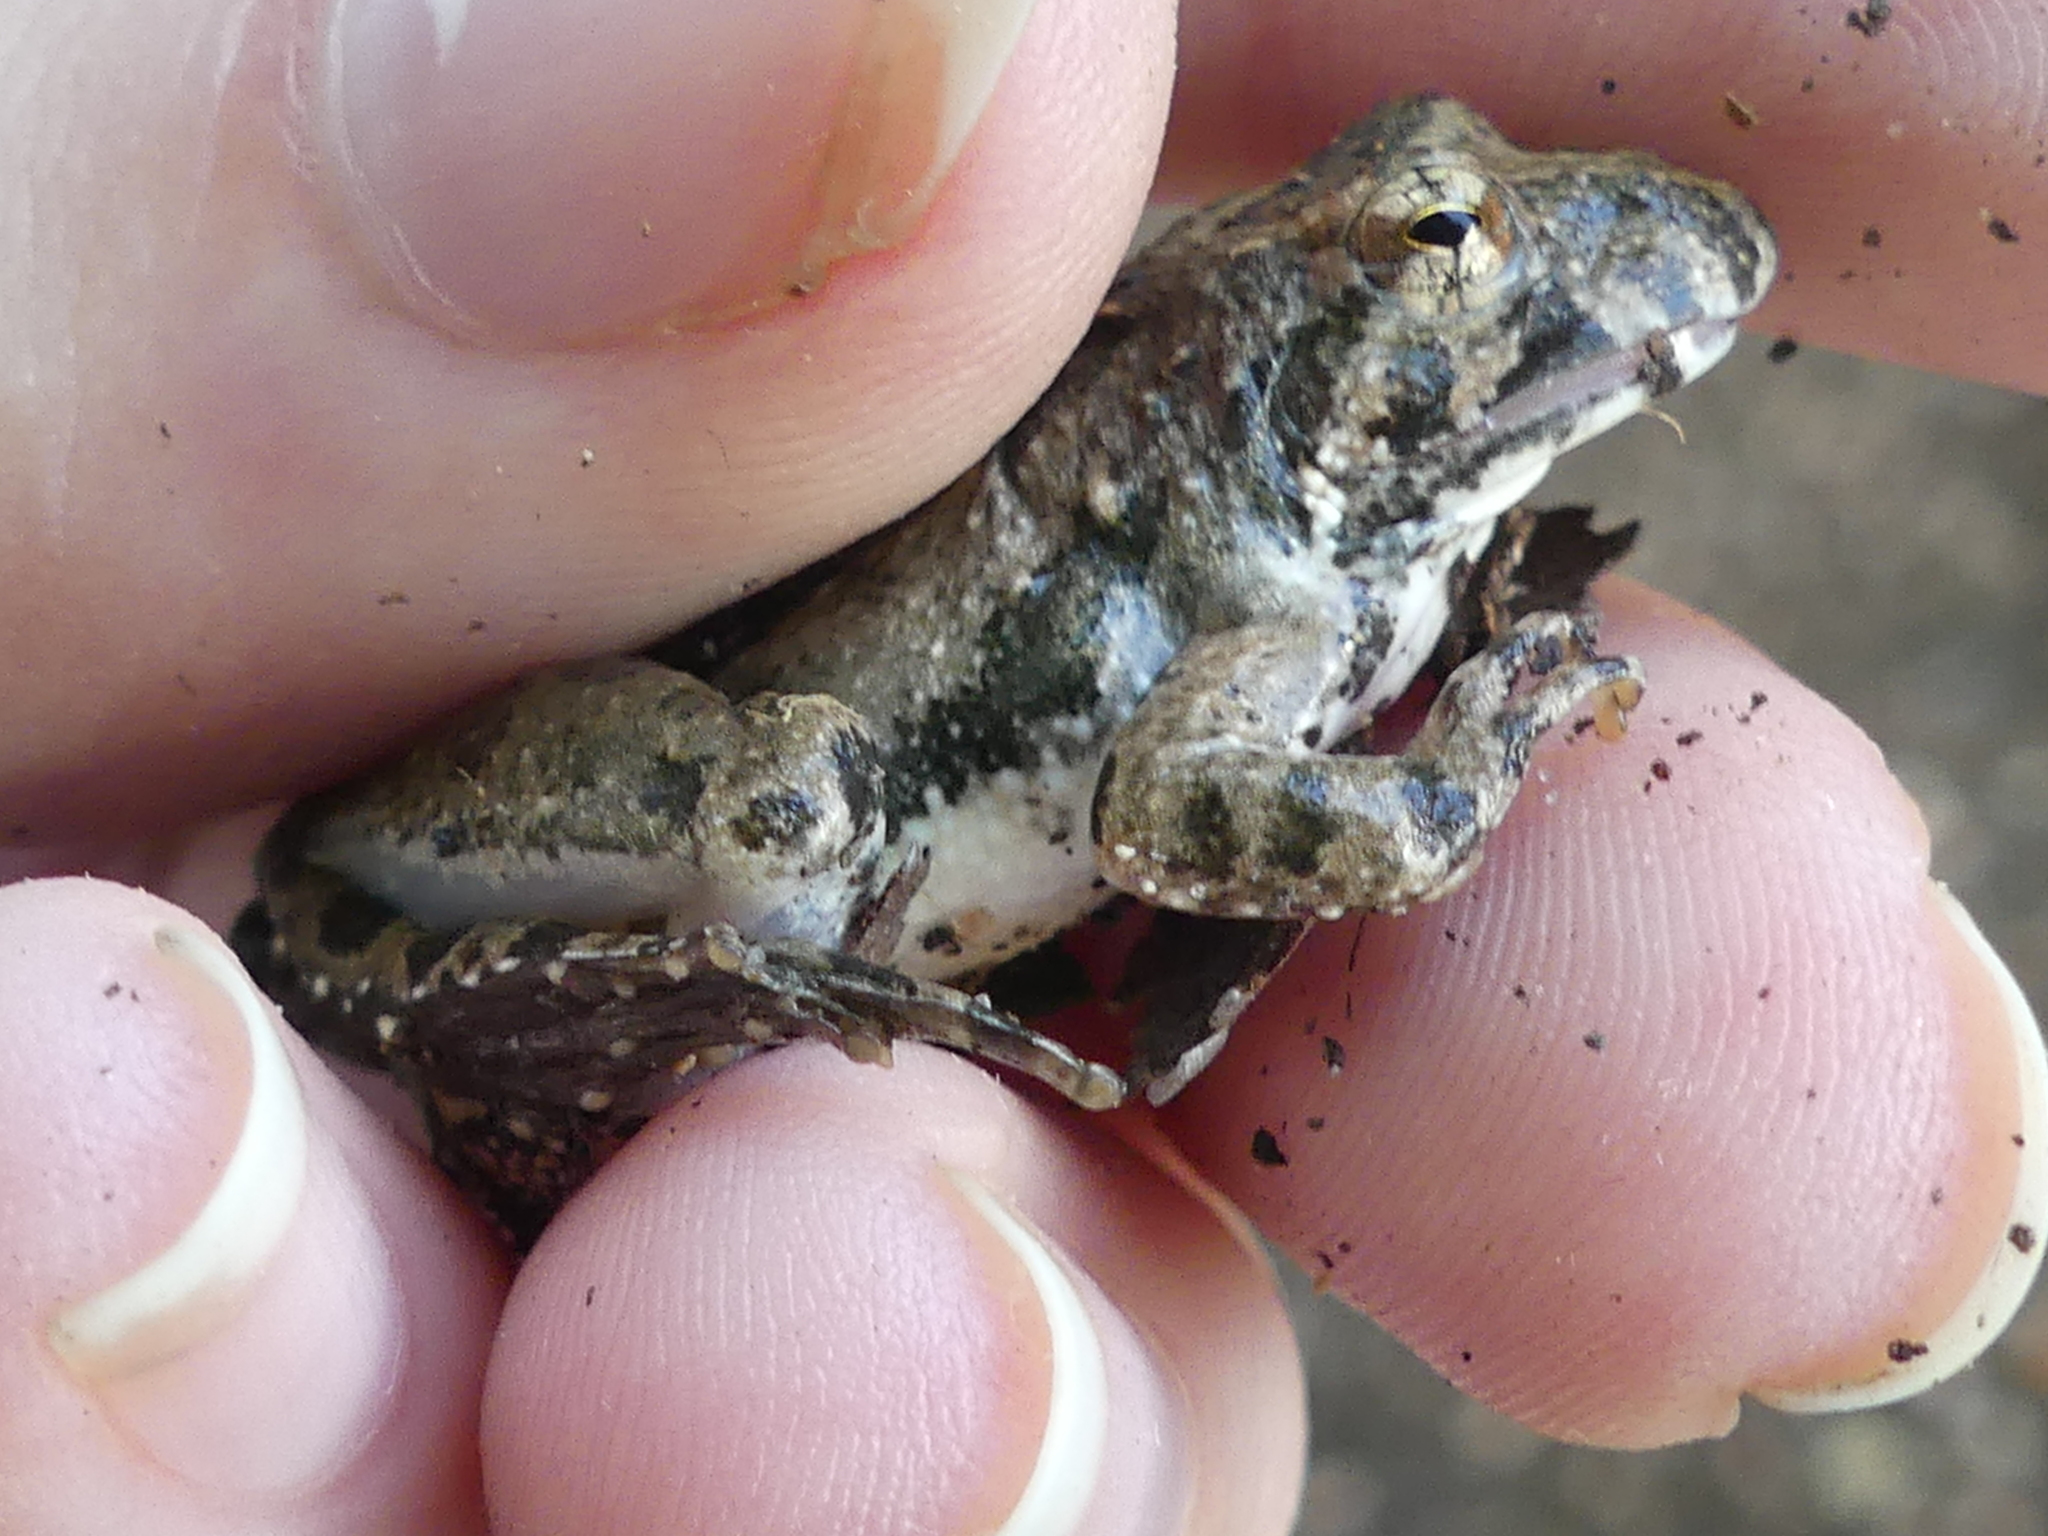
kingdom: Animalia
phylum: Chordata
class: Amphibia
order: Anura
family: Hylidae
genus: Acris
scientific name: Acris blanchardi
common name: Blanchard's cricket frog
